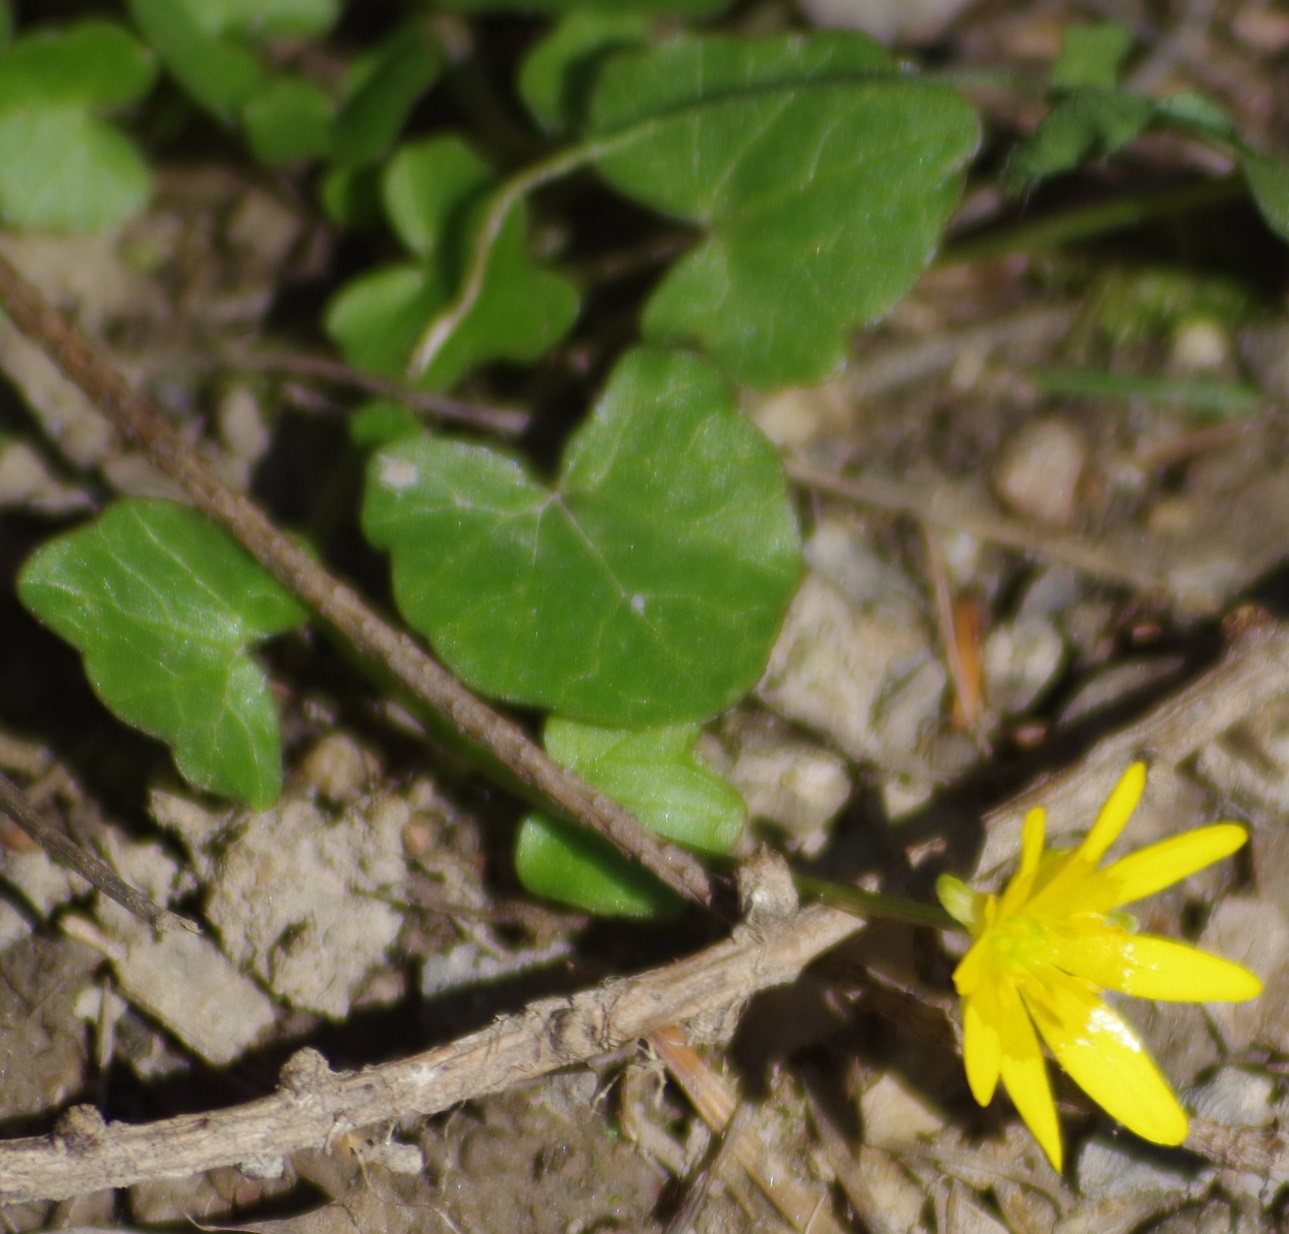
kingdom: Plantae
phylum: Tracheophyta
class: Magnoliopsida
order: Ranunculales
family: Ranunculaceae
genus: Ficaria
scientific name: Ficaria verna
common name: Lesser celandine
